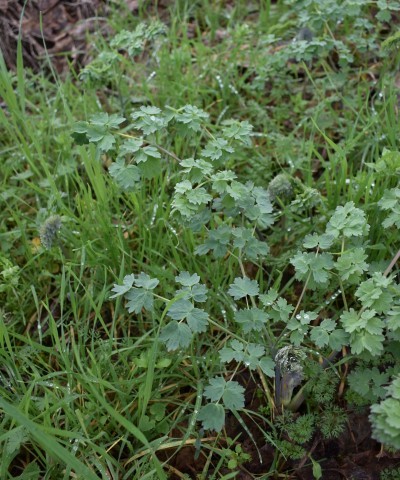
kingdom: Plantae
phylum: Tracheophyta
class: Magnoliopsida
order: Ranunculales
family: Ranunculaceae
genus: Thalictrum
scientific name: Thalictrum fendleri
